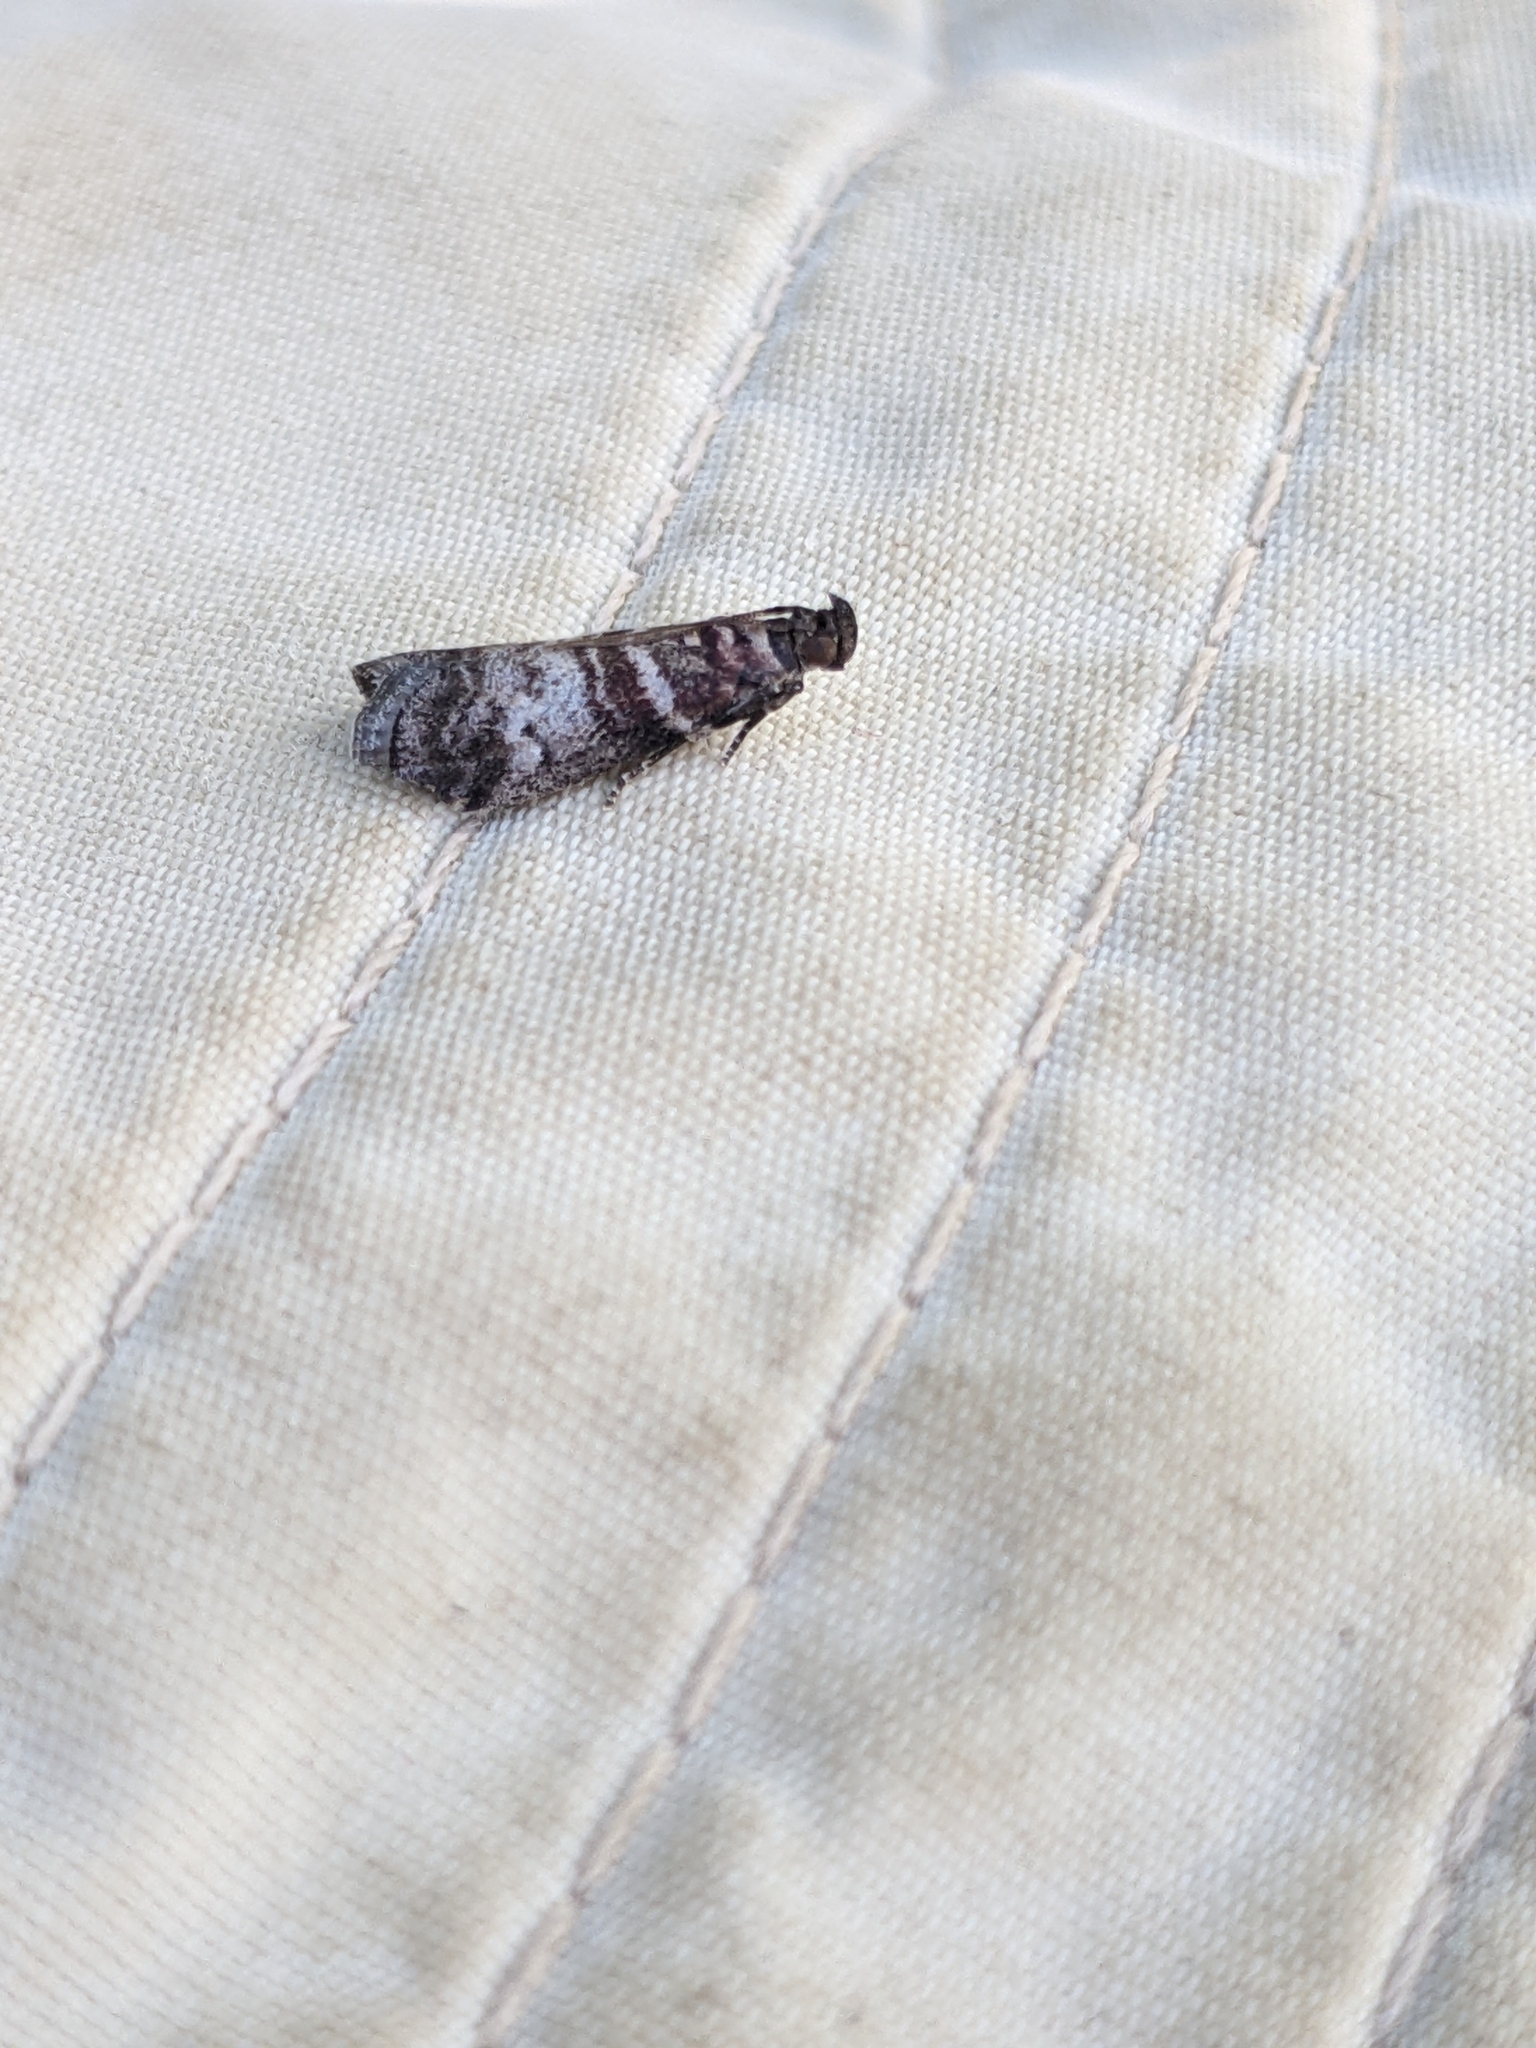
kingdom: Animalia
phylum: Arthropoda
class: Insecta
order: Lepidoptera
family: Pyralidae
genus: Sciota
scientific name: Sciota uvinella
